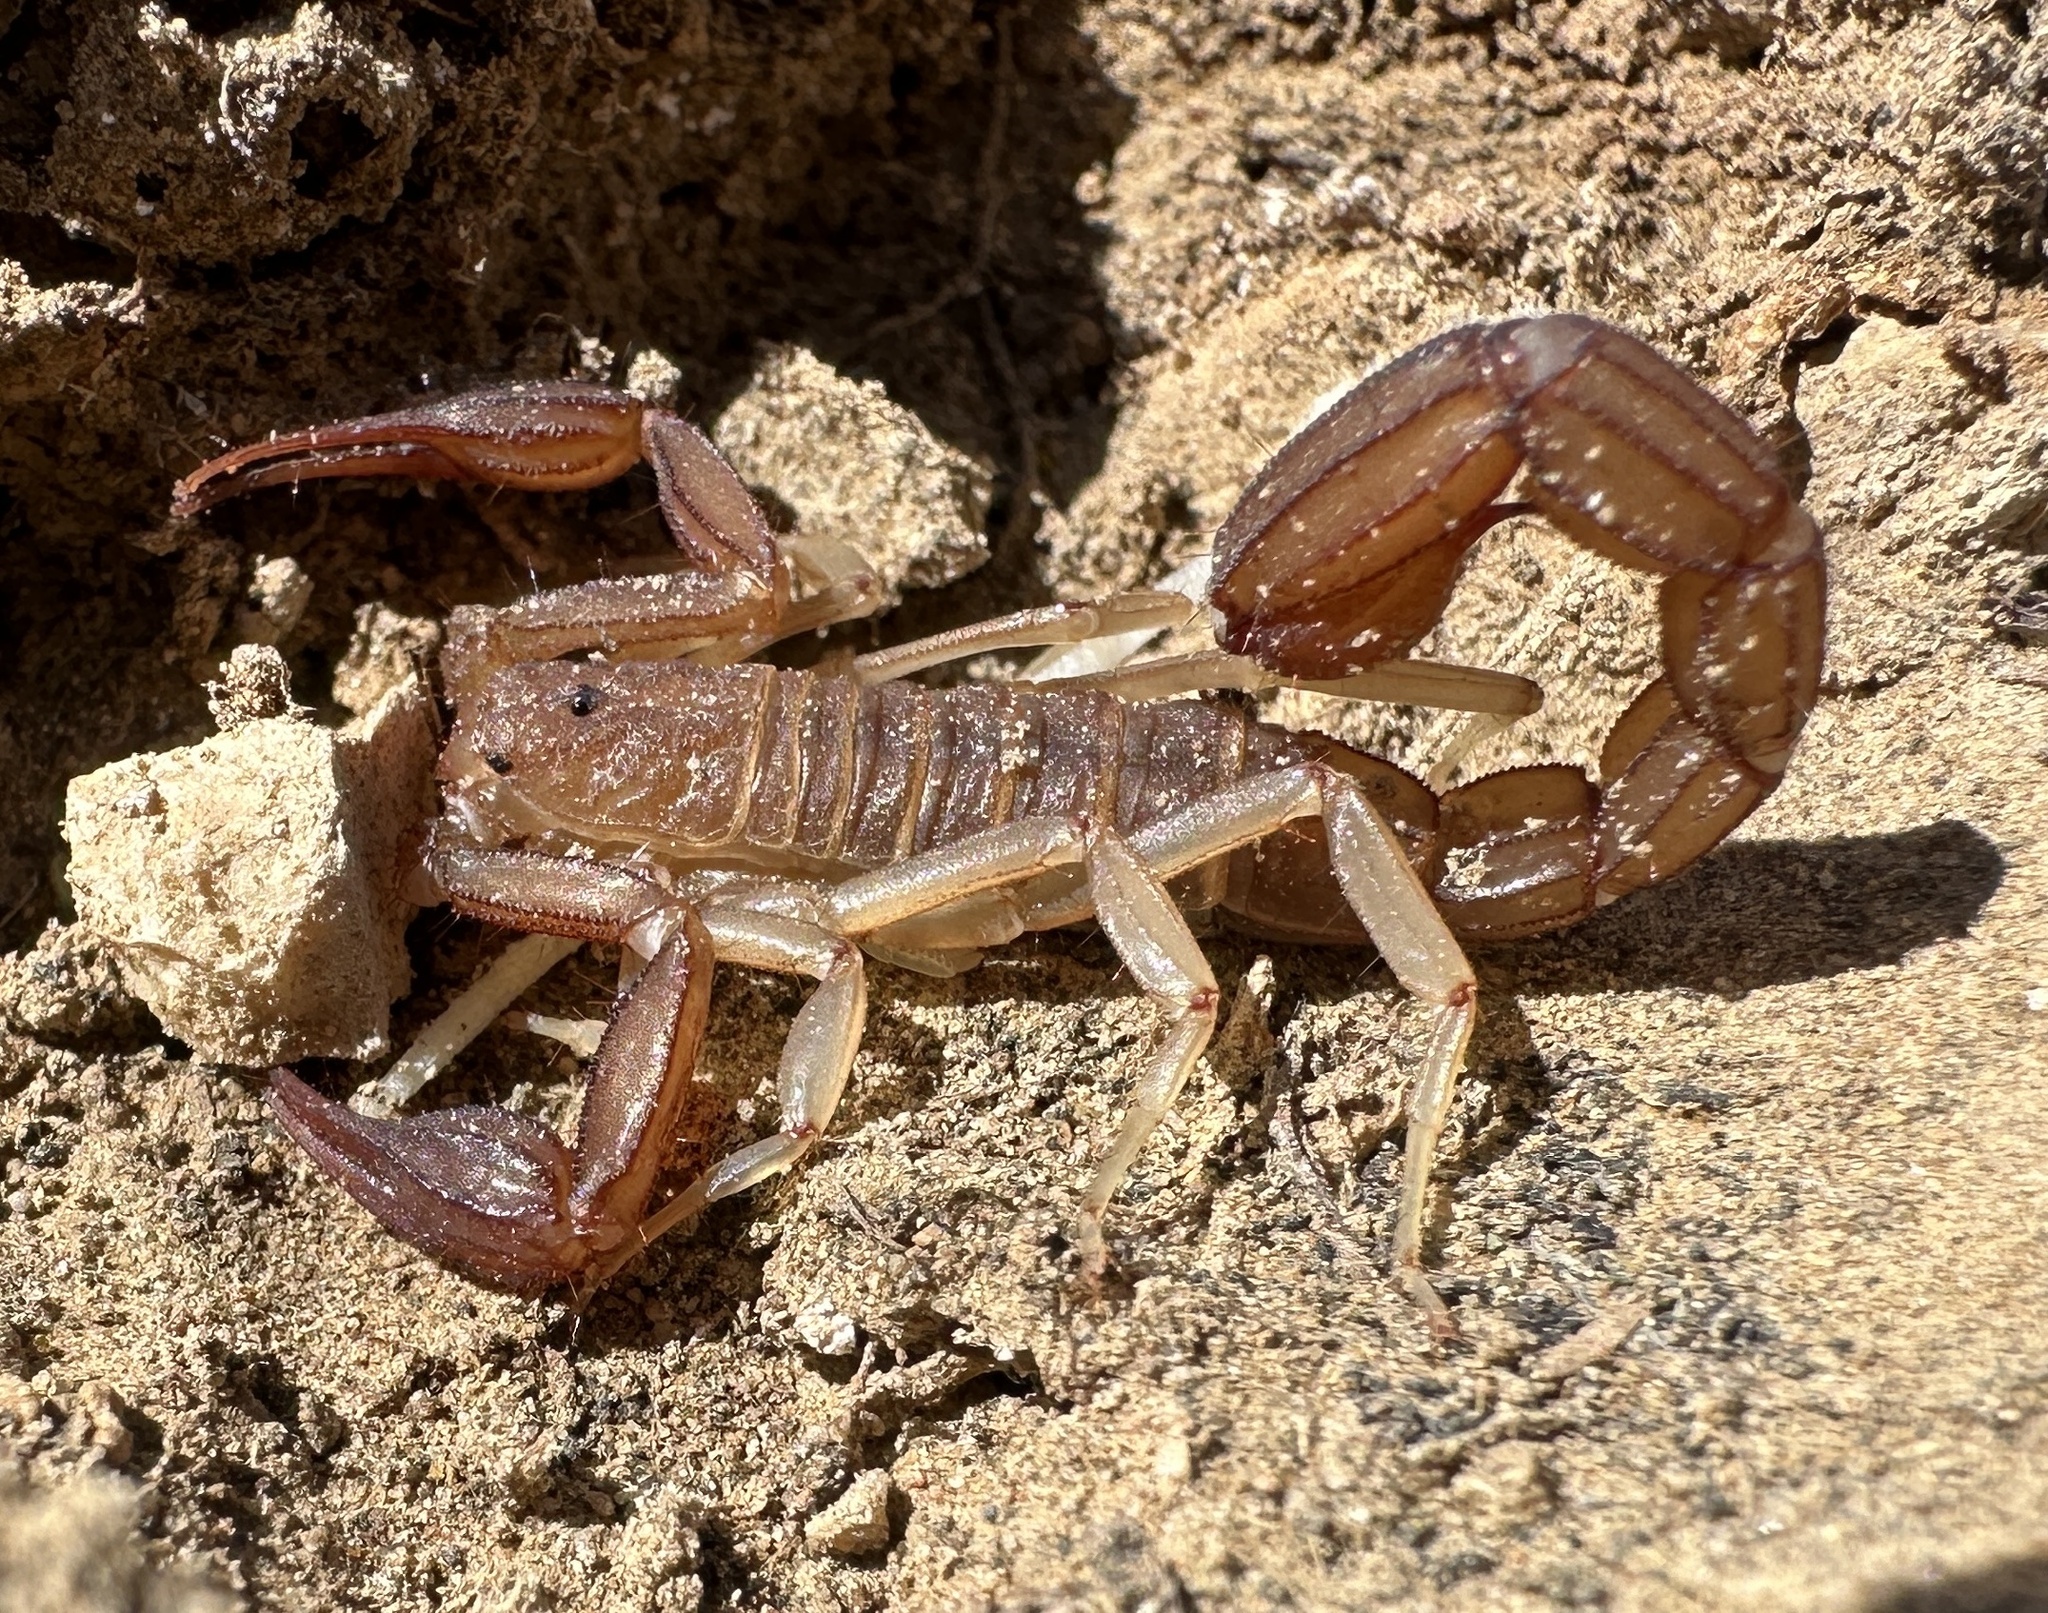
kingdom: Animalia
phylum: Arthropoda
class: Arachnida
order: Scorpiones
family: Vaejovidae
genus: Stahnkeus
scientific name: Stahnkeus deserticola
